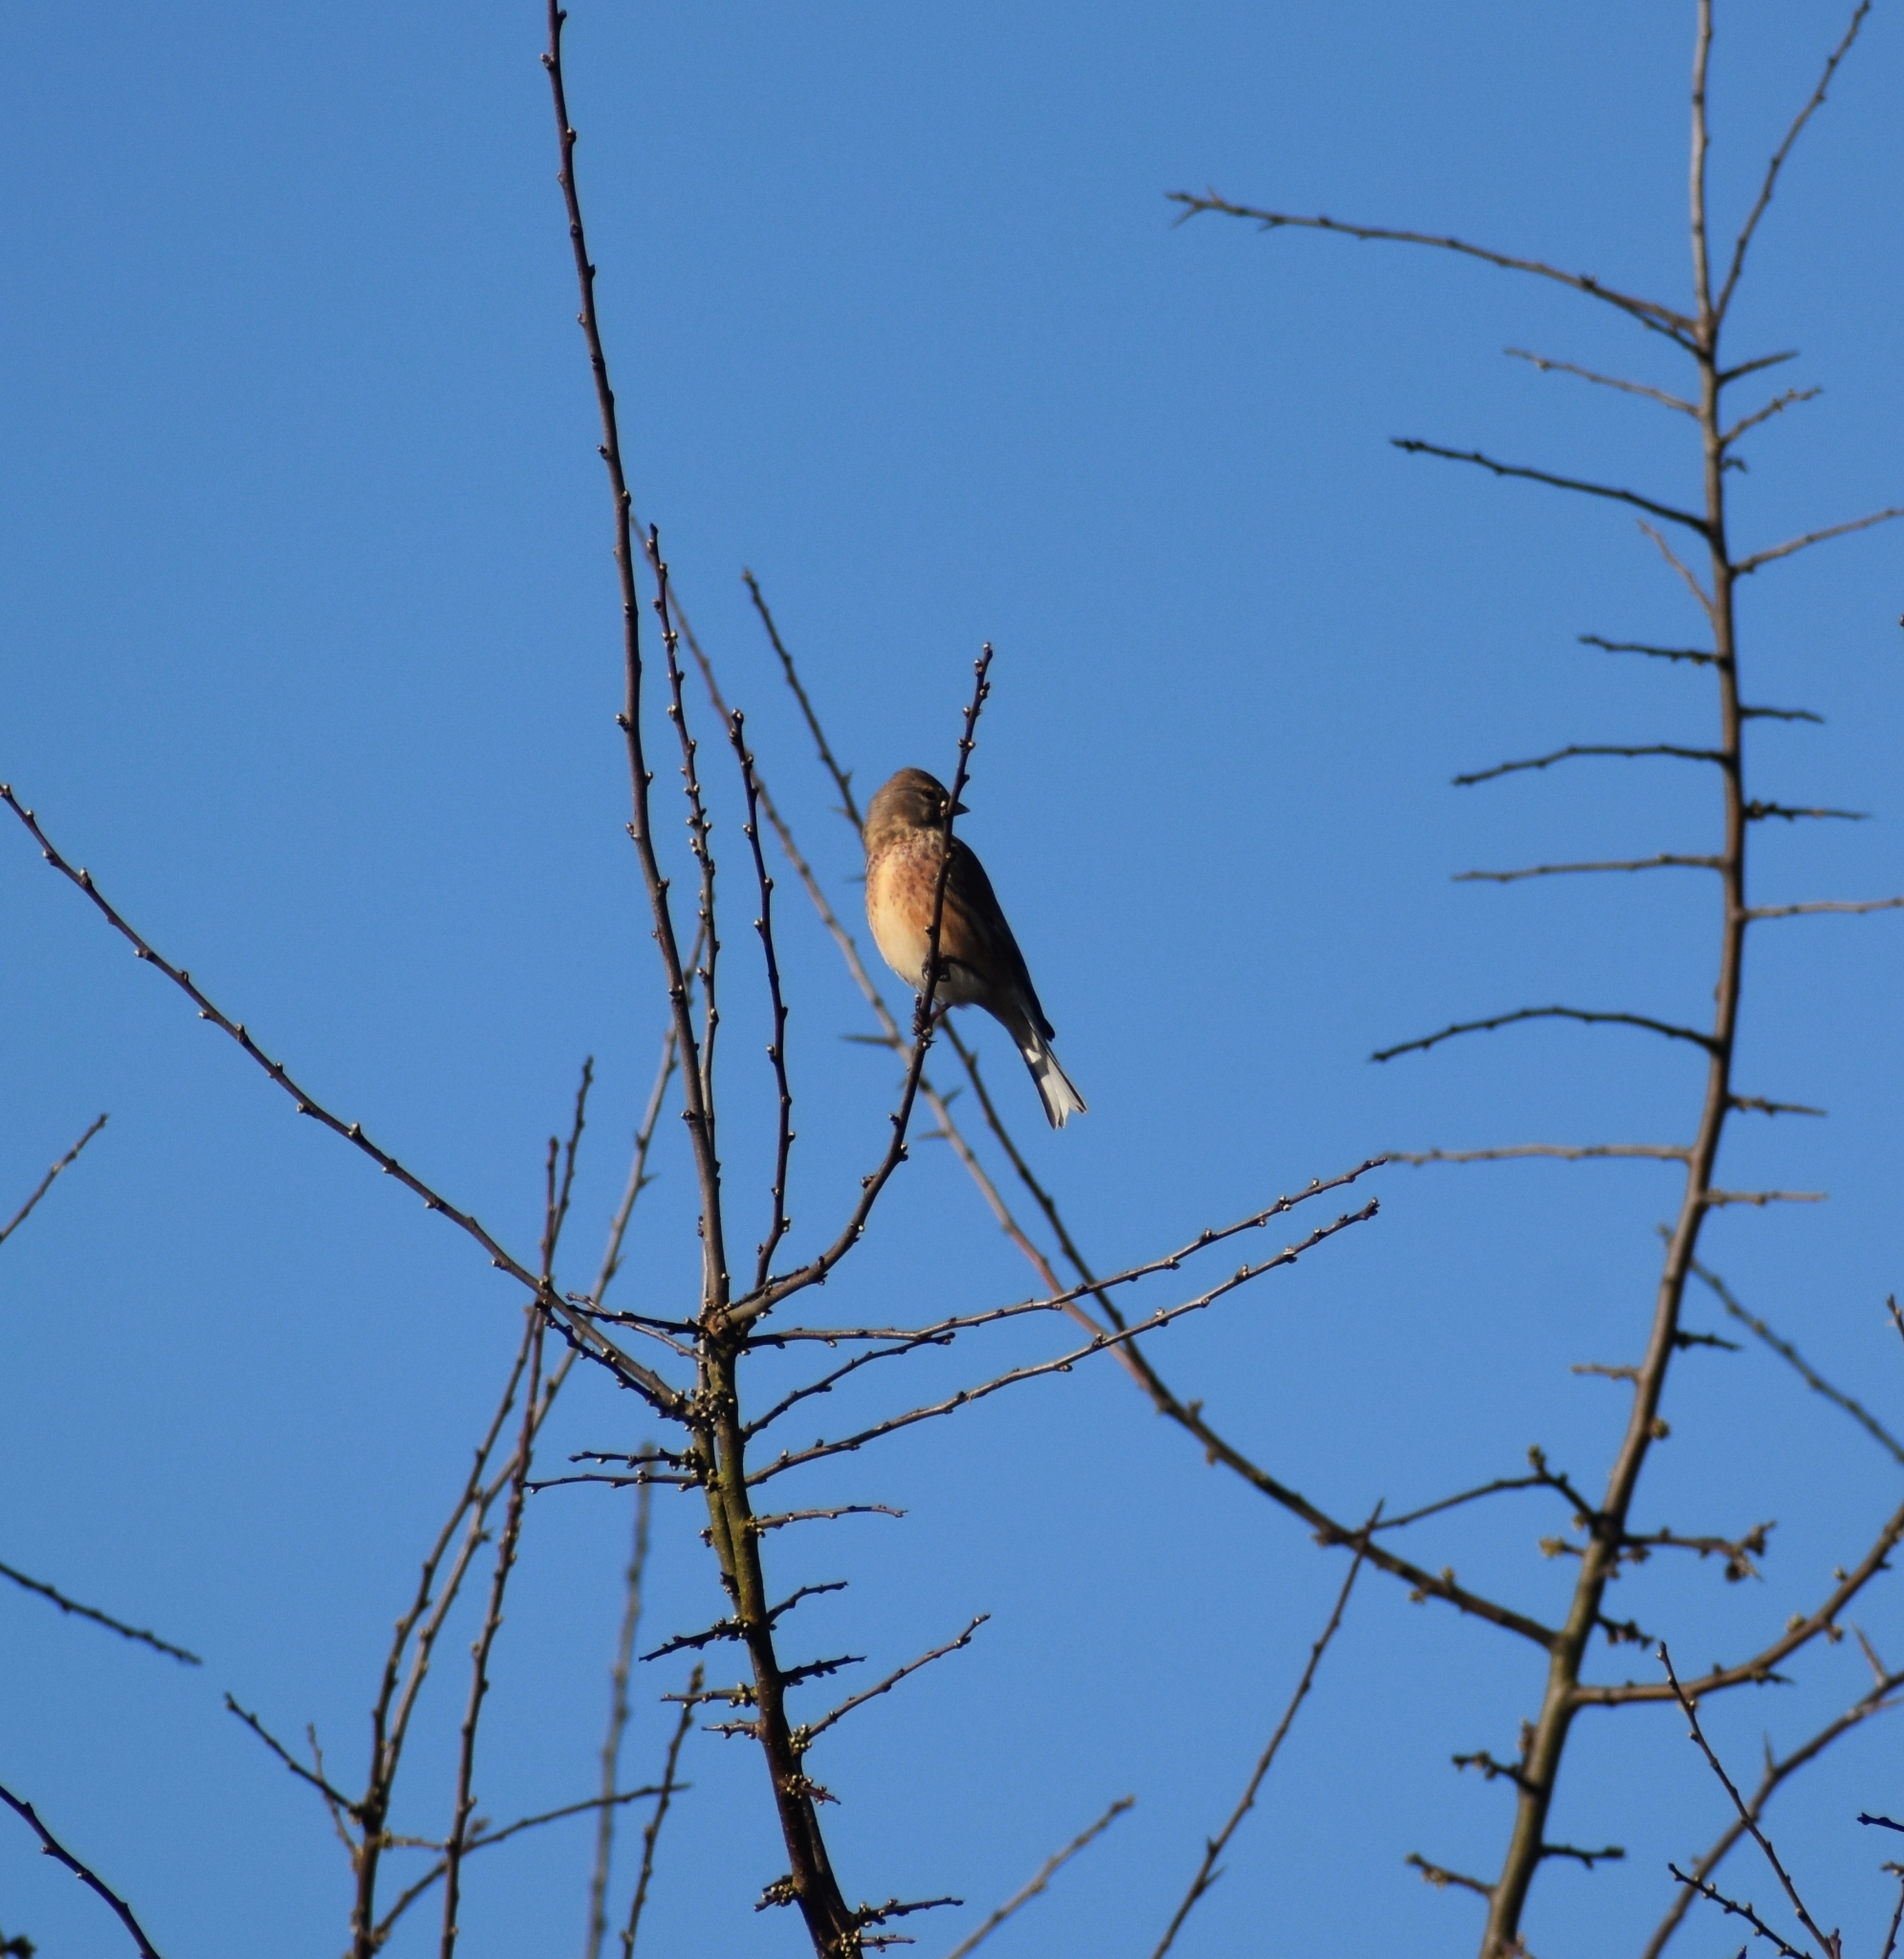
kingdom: Animalia
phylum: Chordata
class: Aves
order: Passeriformes
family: Fringillidae
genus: Linaria
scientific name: Linaria cannabina
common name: Common linnet
